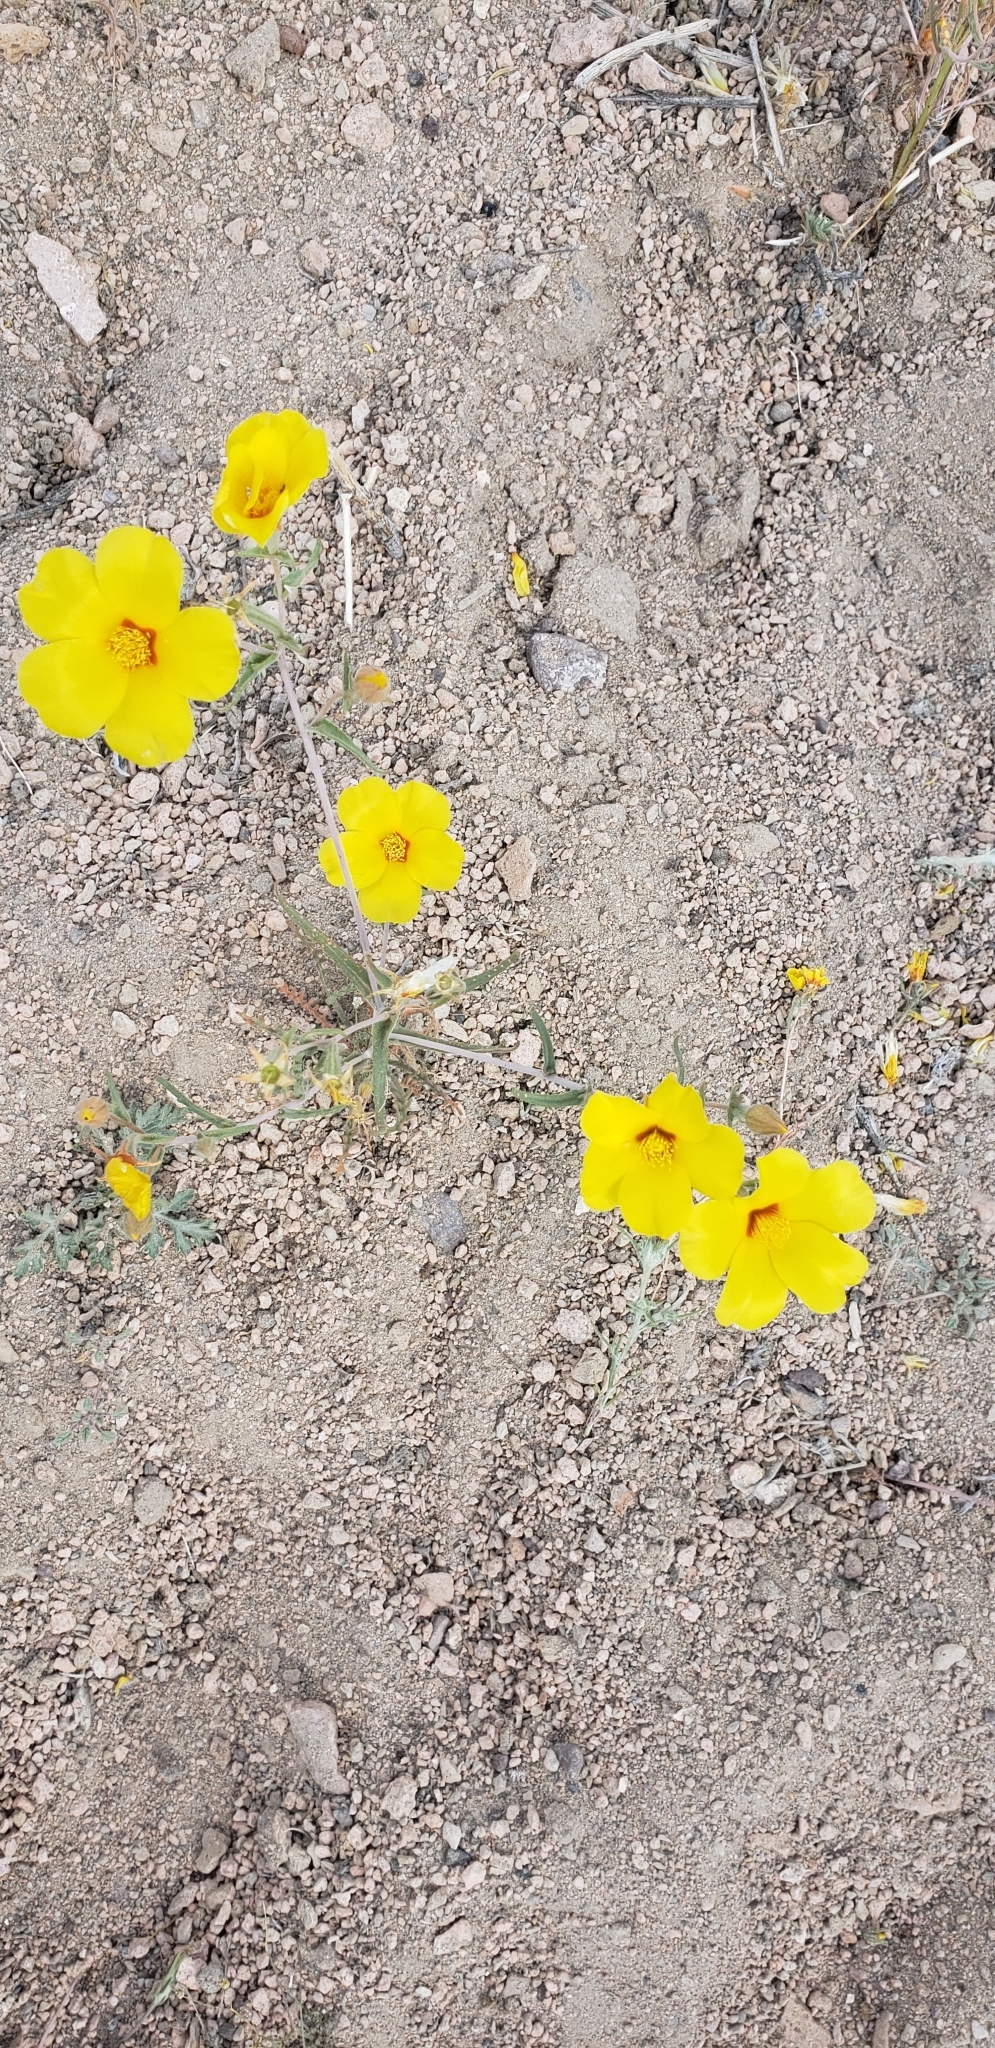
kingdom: Plantae
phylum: Tracheophyta
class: Magnoliopsida
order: Cornales
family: Loasaceae
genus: Mentzelia
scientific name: Mentzelia nitens
